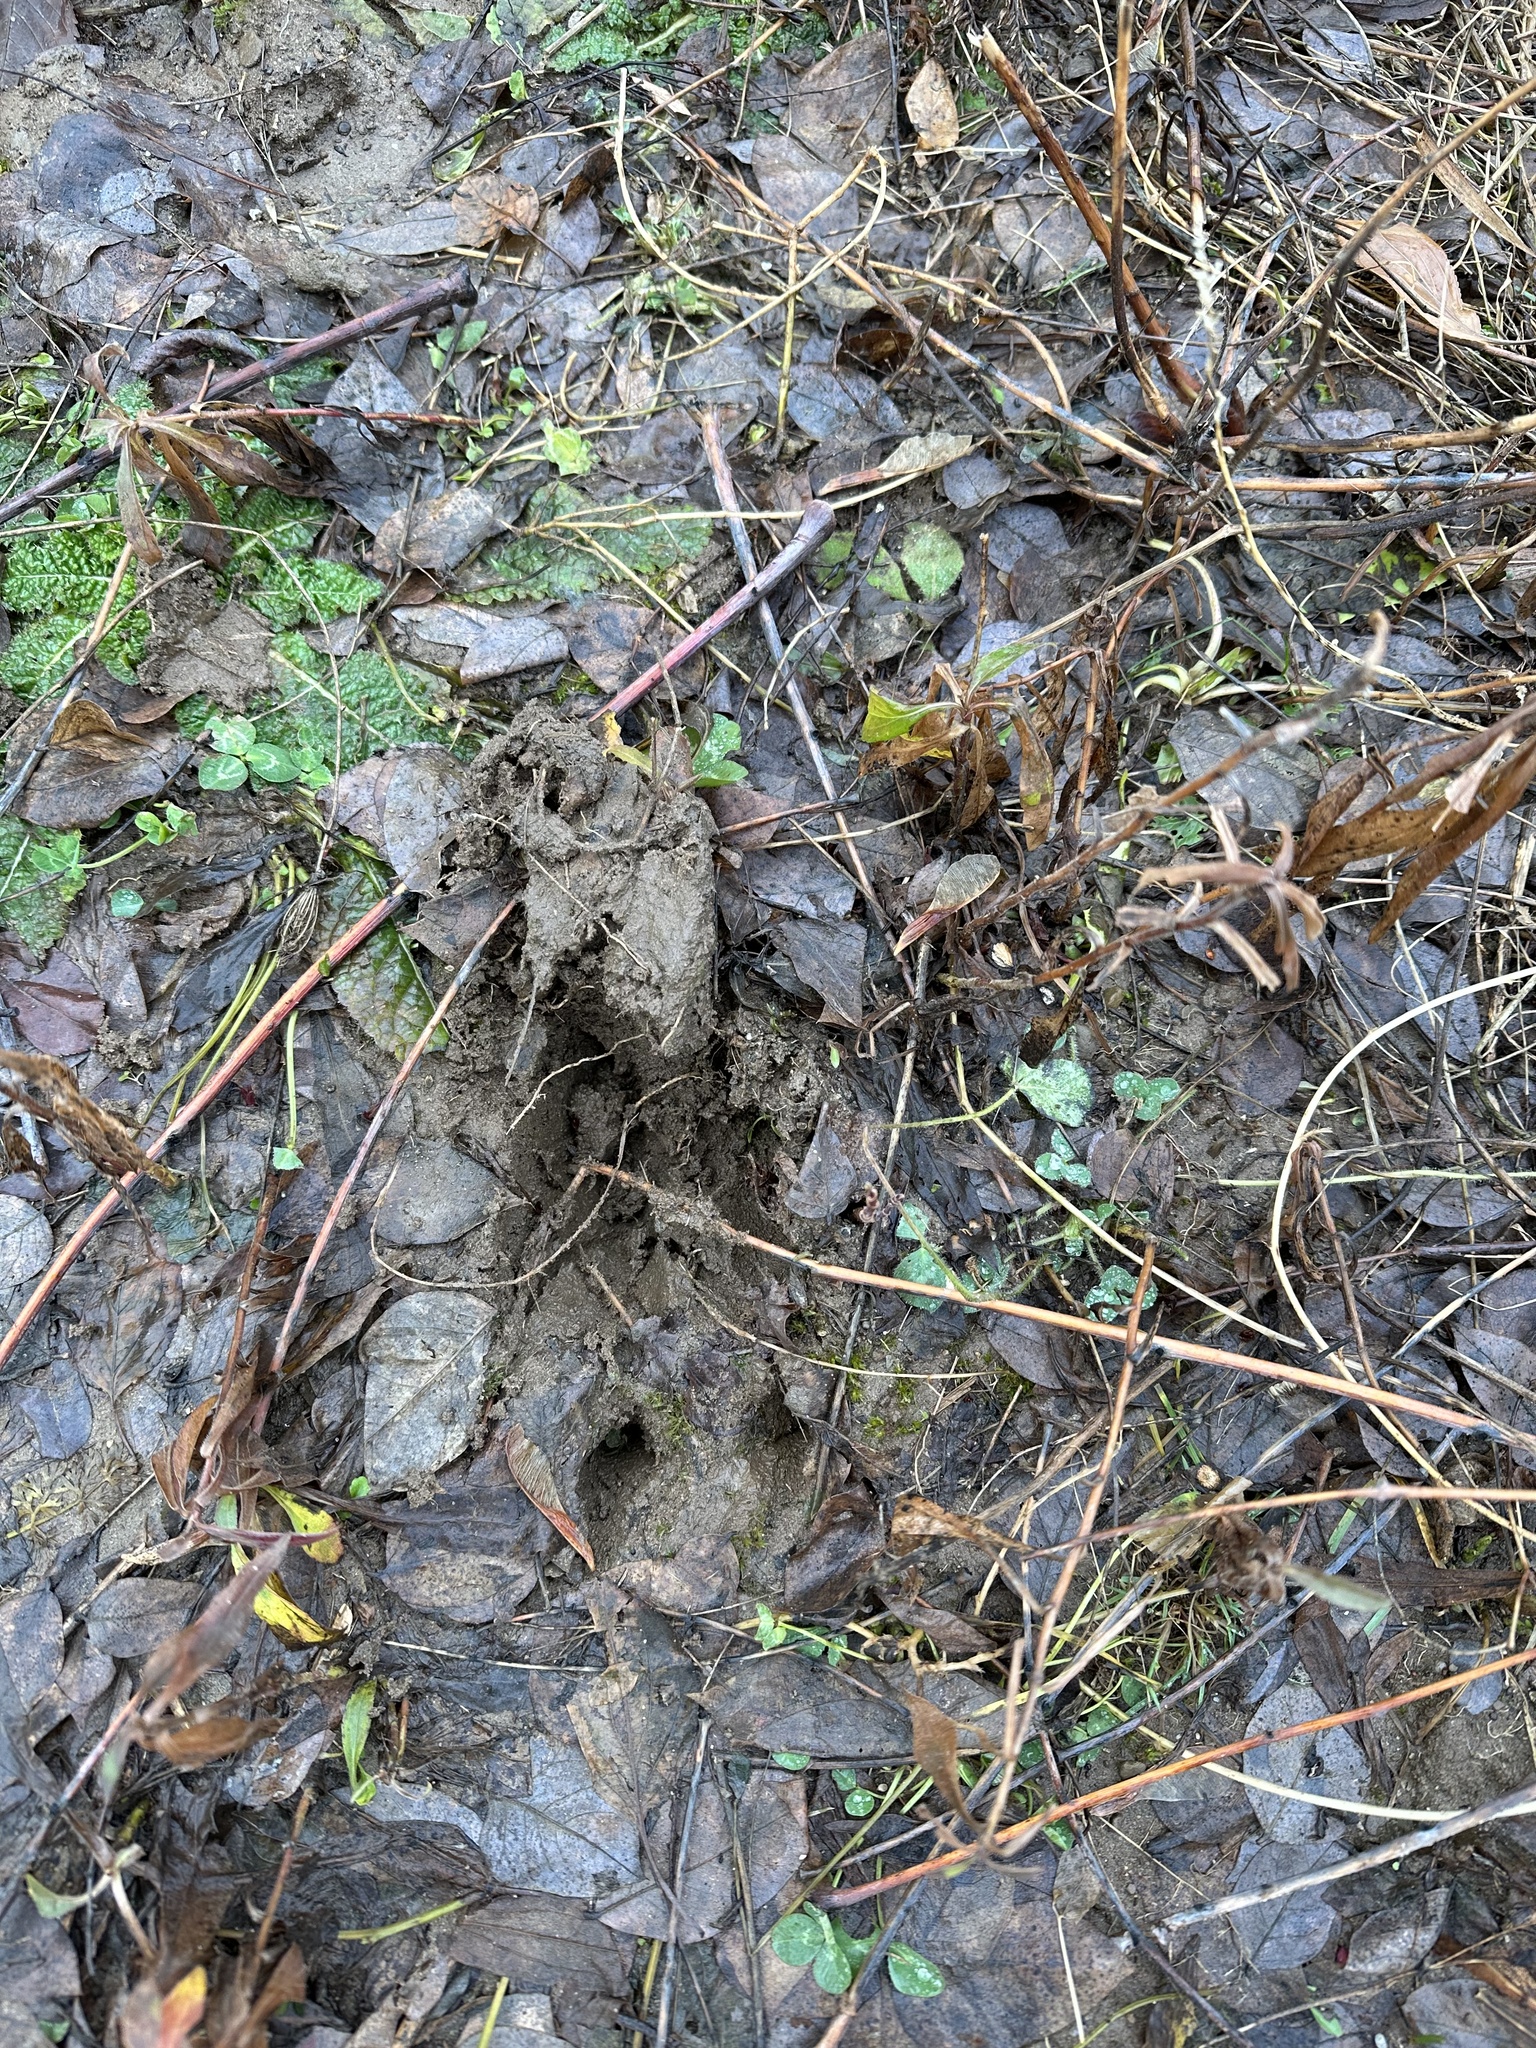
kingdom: Animalia
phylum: Chordata
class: Mammalia
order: Artiodactyla
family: Cervidae
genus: Odocoileus
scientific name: Odocoileus virginianus
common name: White-tailed deer
